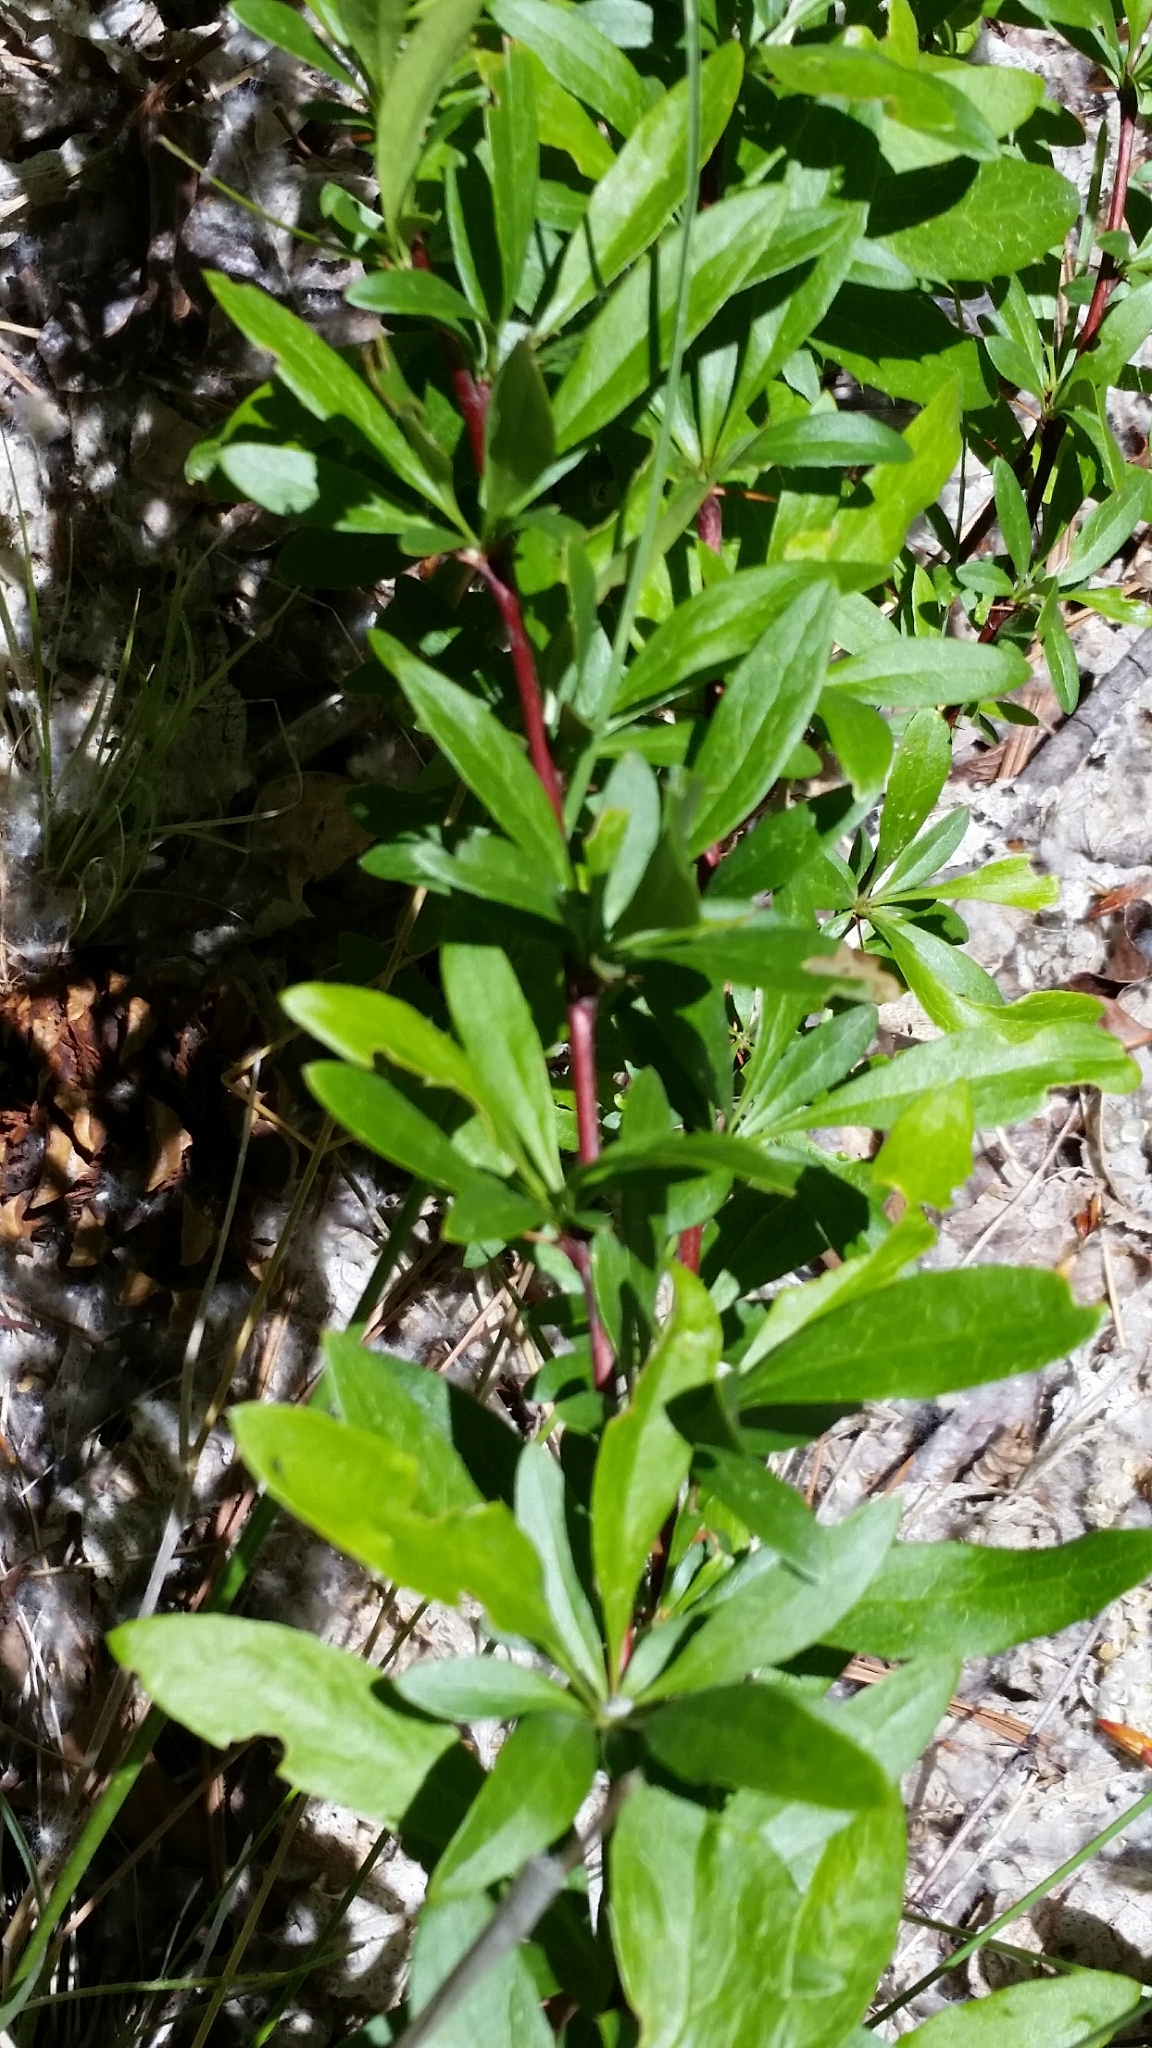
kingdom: Plantae
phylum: Tracheophyta
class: Magnoliopsida
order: Ranunculales
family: Berberidaceae
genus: Berberis
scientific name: Berberis fendleri
